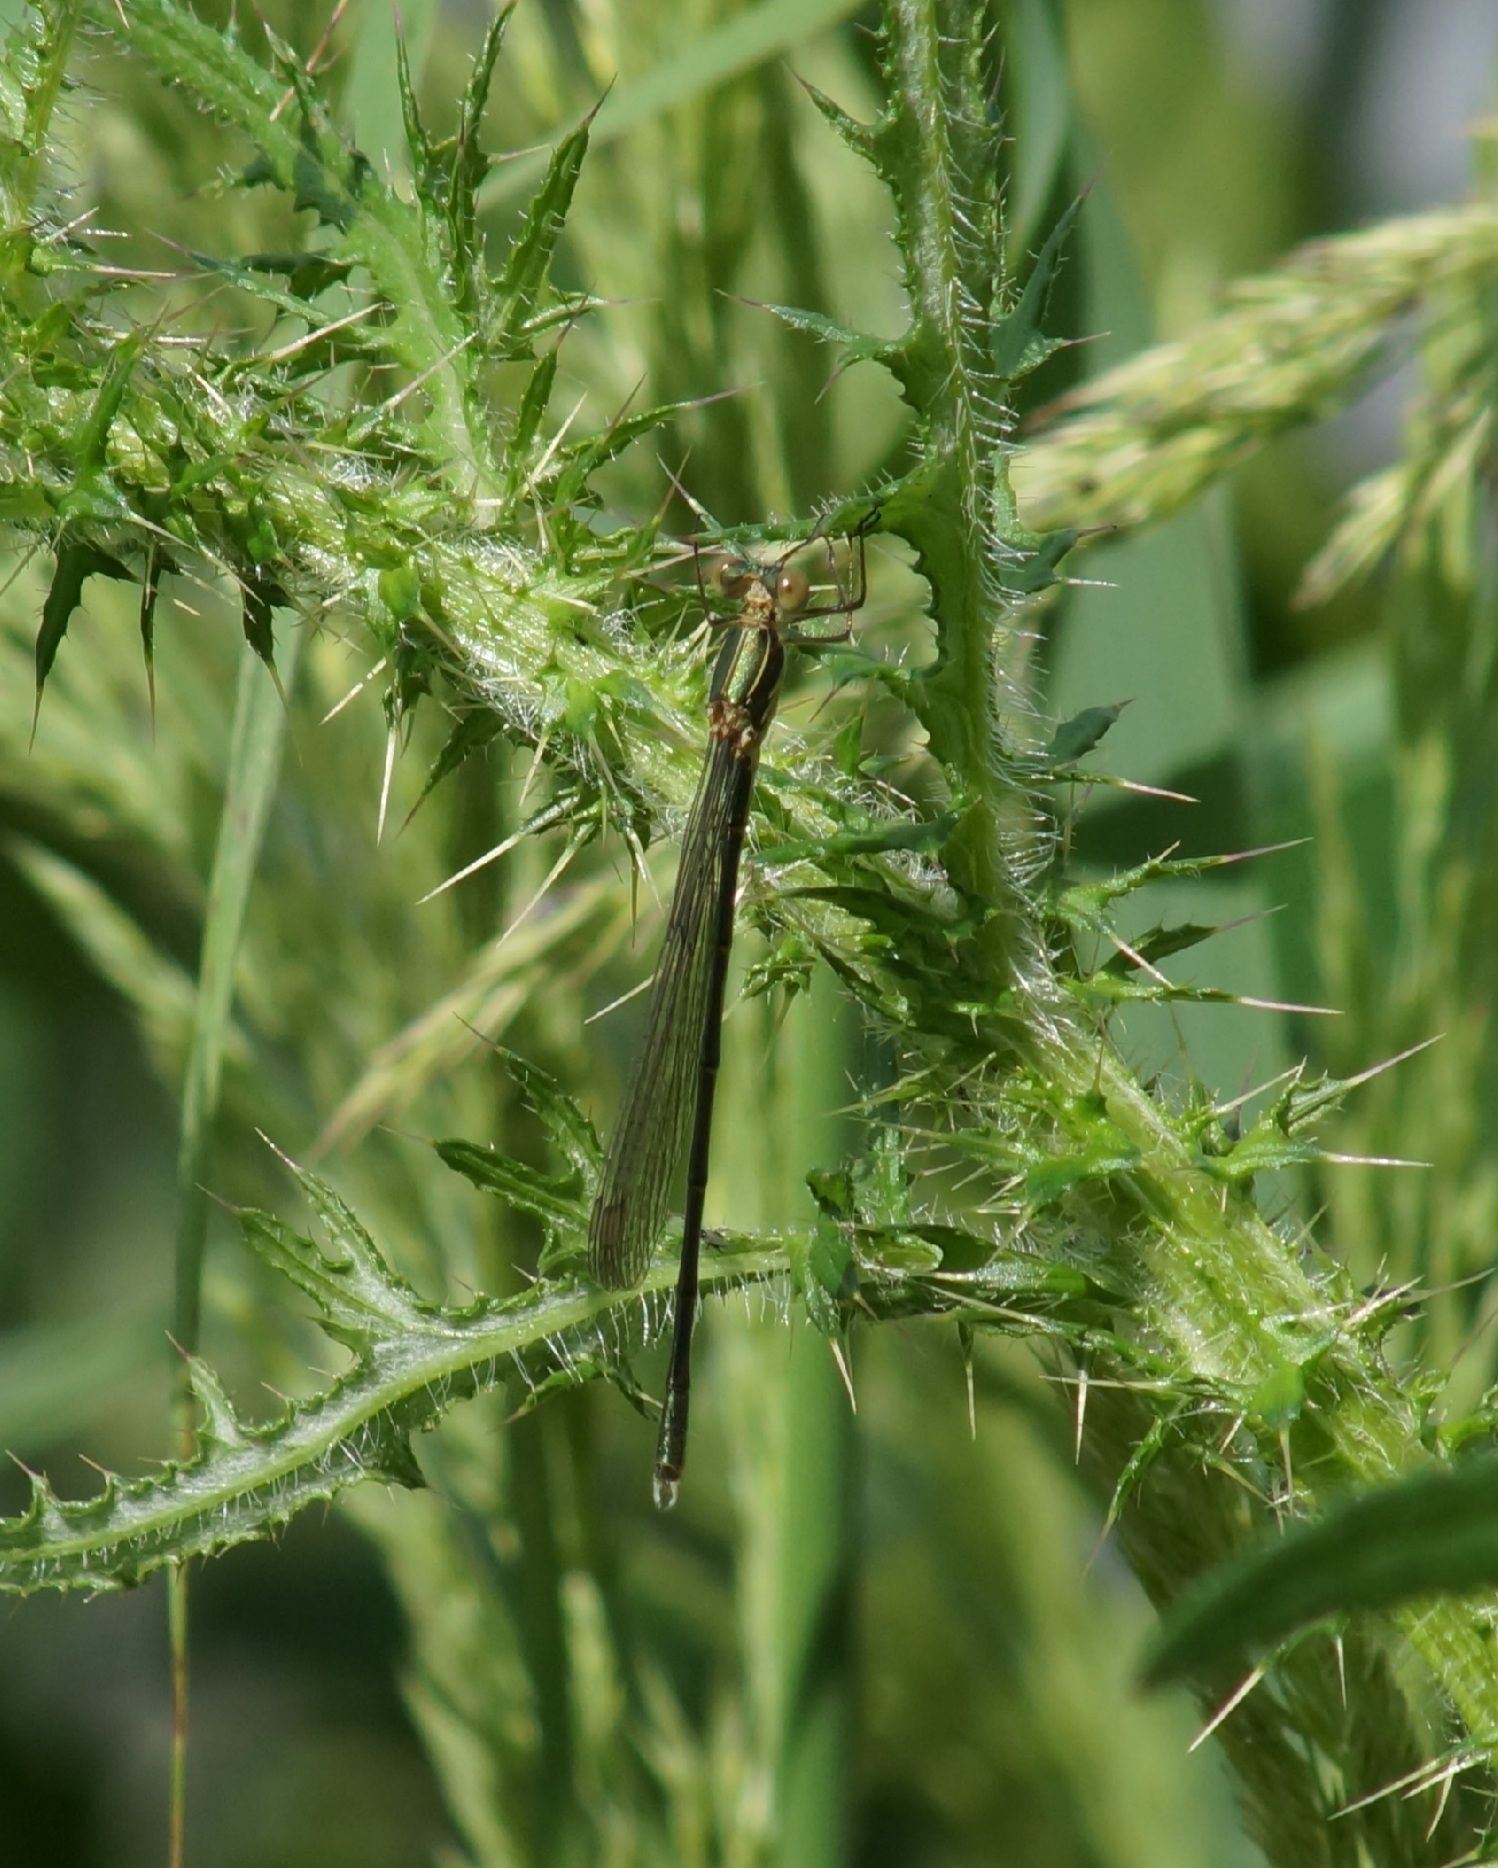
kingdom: Animalia
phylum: Arthropoda
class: Insecta
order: Odonata
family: Lestidae
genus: Chalcolestes
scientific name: Chalcolestes viridis
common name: Green emerald damselfly
